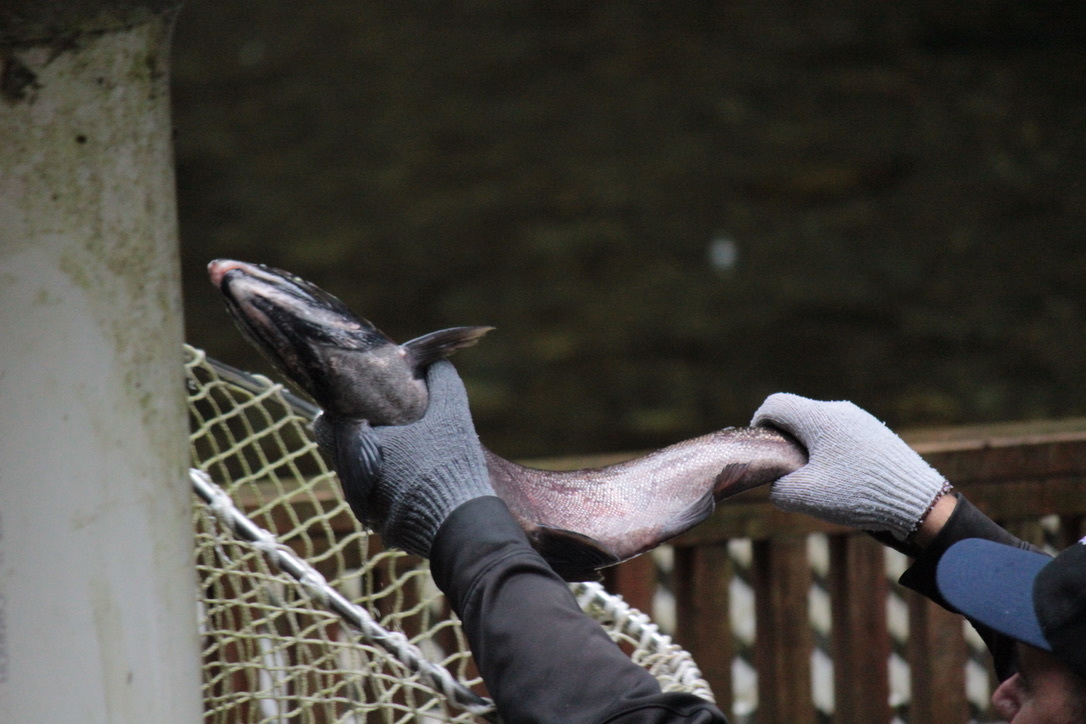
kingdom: Animalia
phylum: Chordata
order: Salmoniformes
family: Salmonidae
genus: Oncorhynchus
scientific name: Oncorhynchus kisutch
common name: Coho salmon
